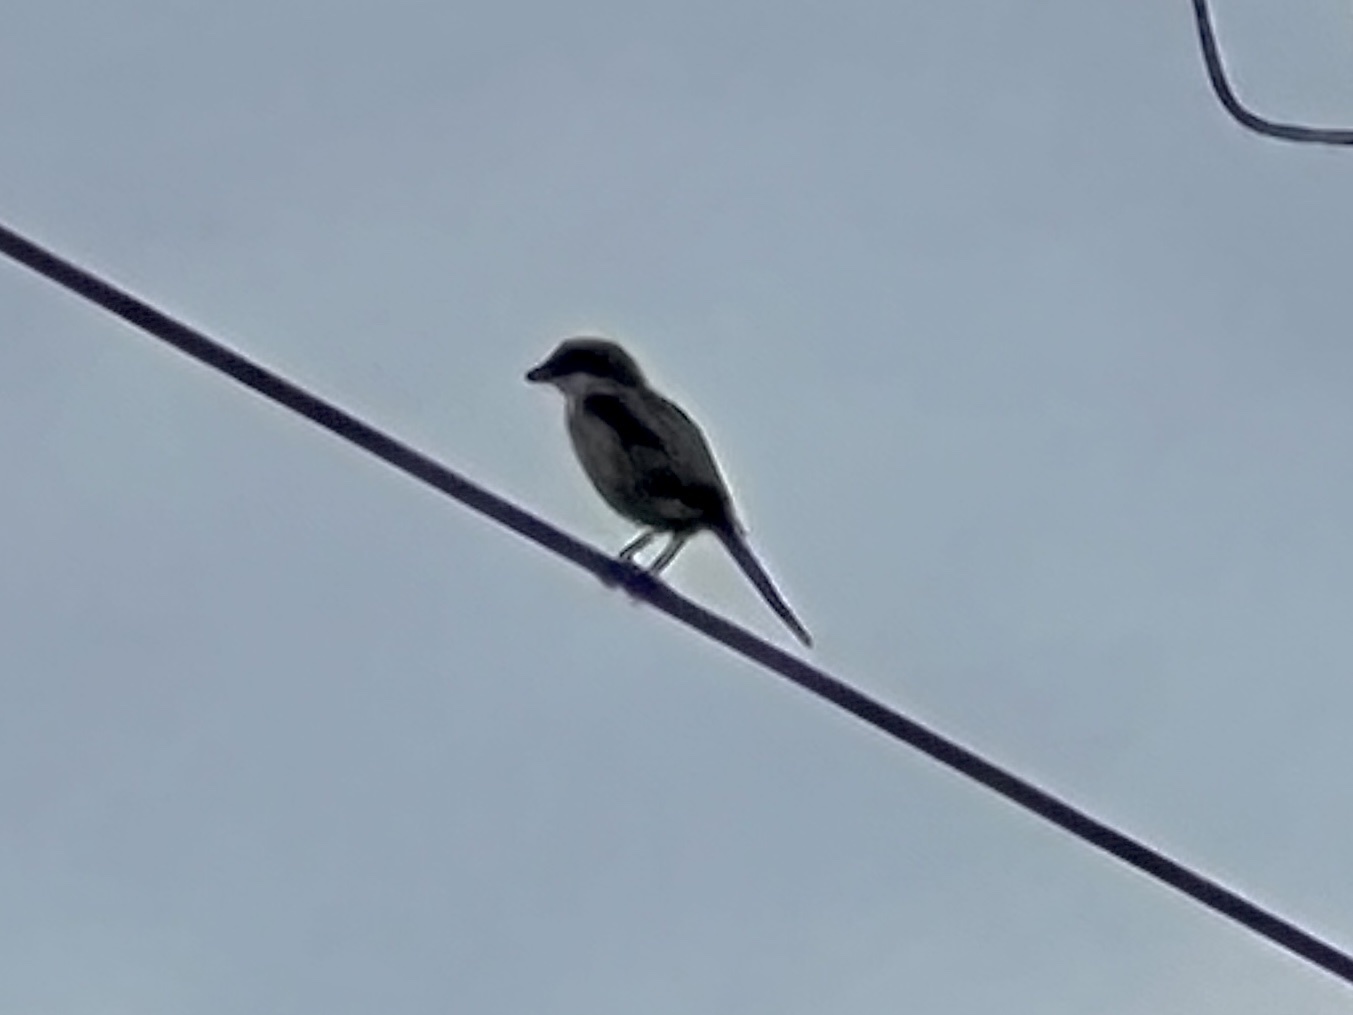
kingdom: Animalia
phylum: Chordata
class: Aves
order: Passeriformes
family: Laniidae
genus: Lanius
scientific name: Lanius ludovicianus
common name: Loggerhead shrike
